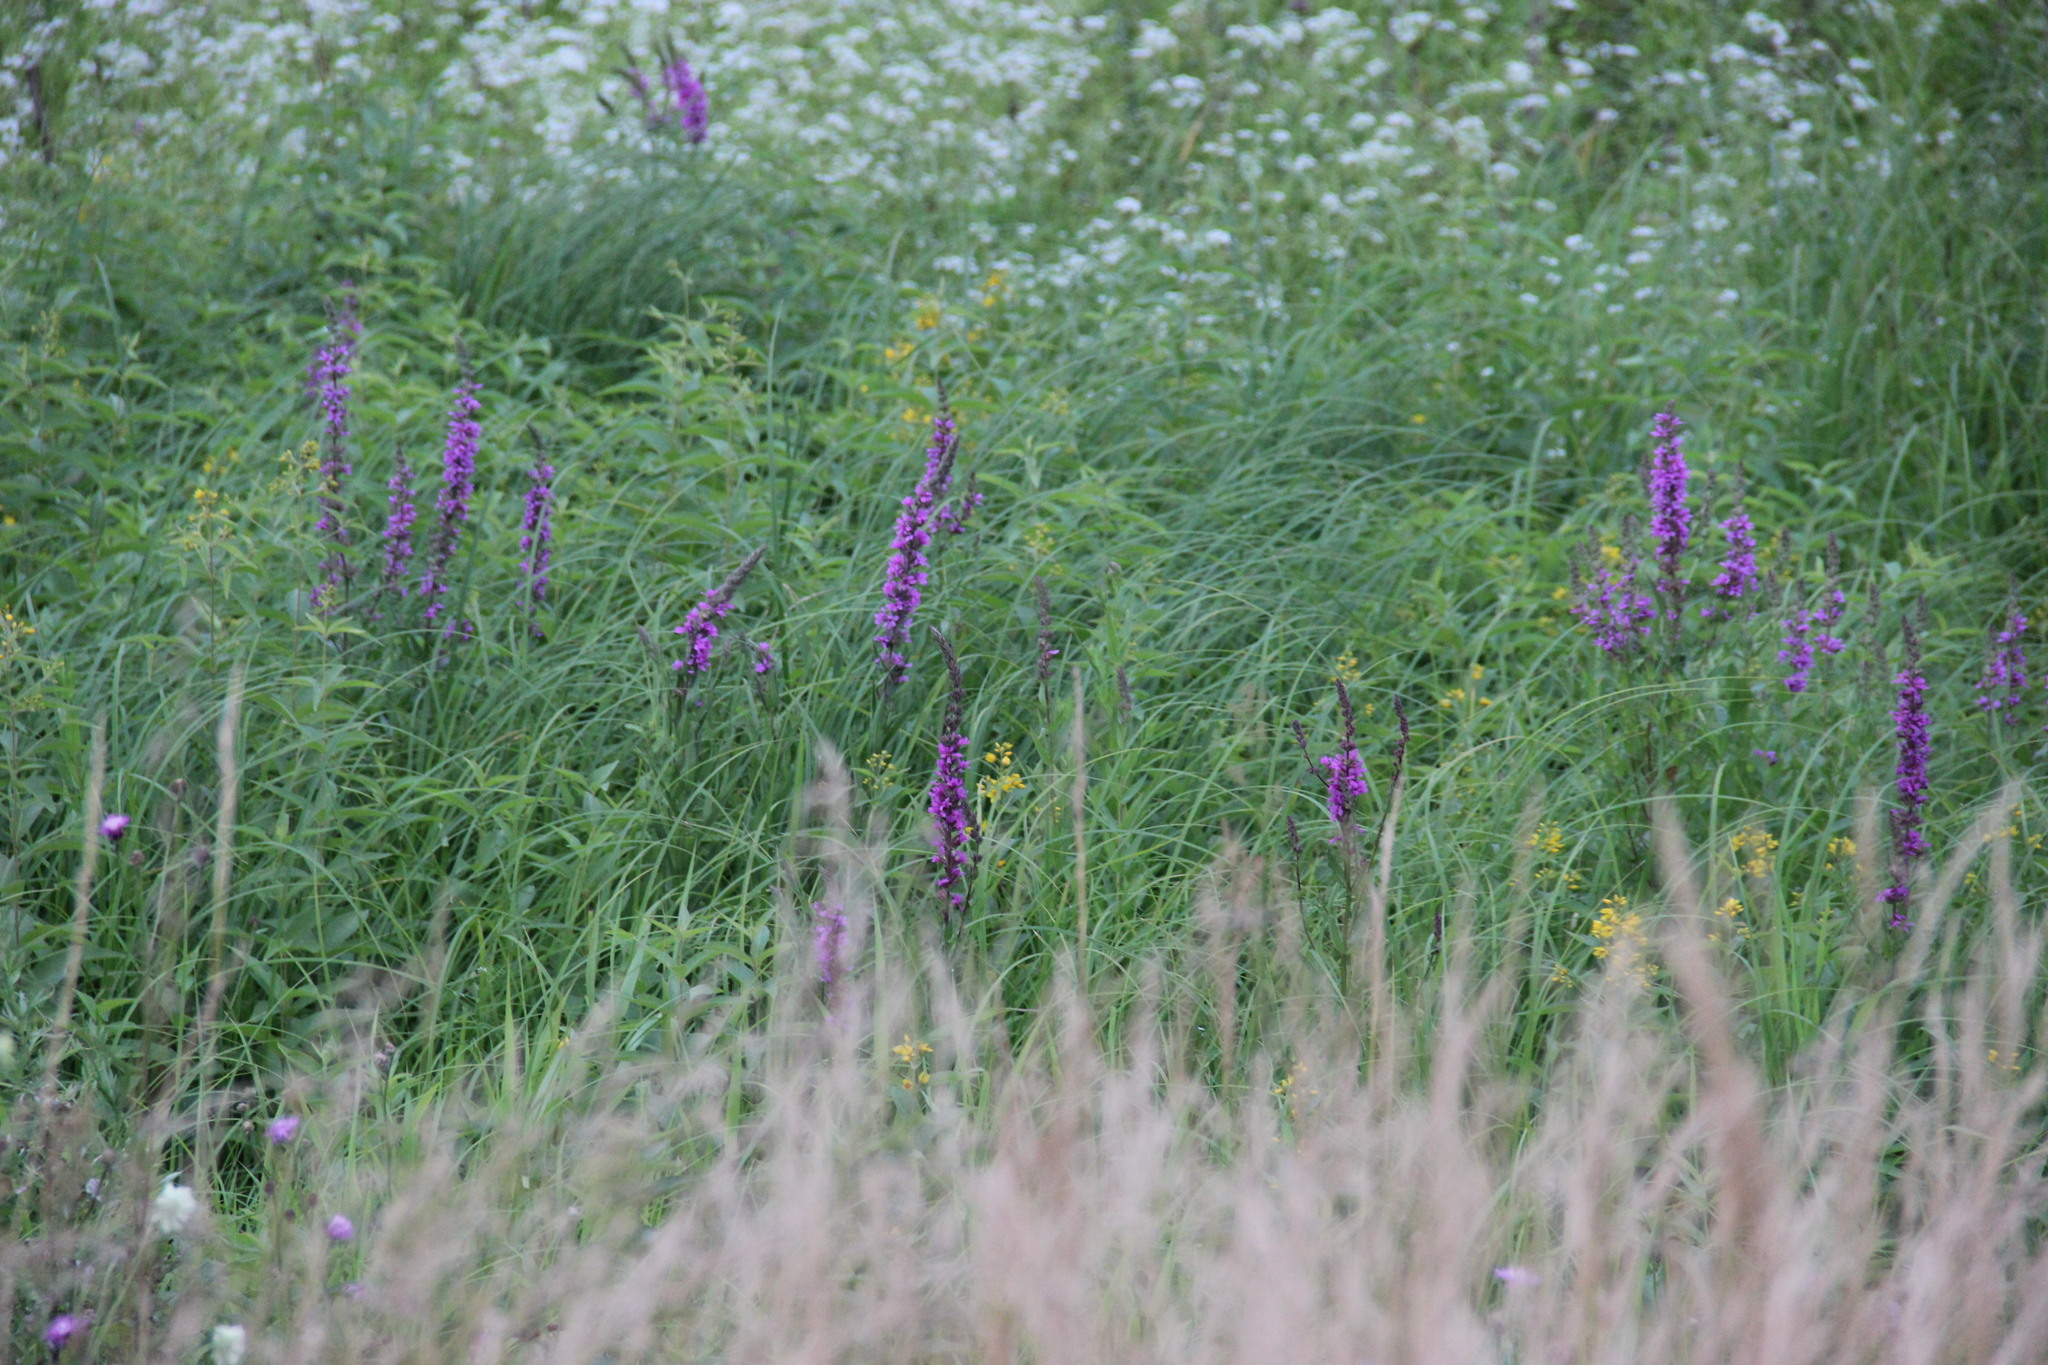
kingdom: Plantae
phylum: Tracheophyta
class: Magnoliopsida
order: Myrtales
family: Lythraceae
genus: Lythrum
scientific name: Lythrum salicaria
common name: Purple loosestrife
